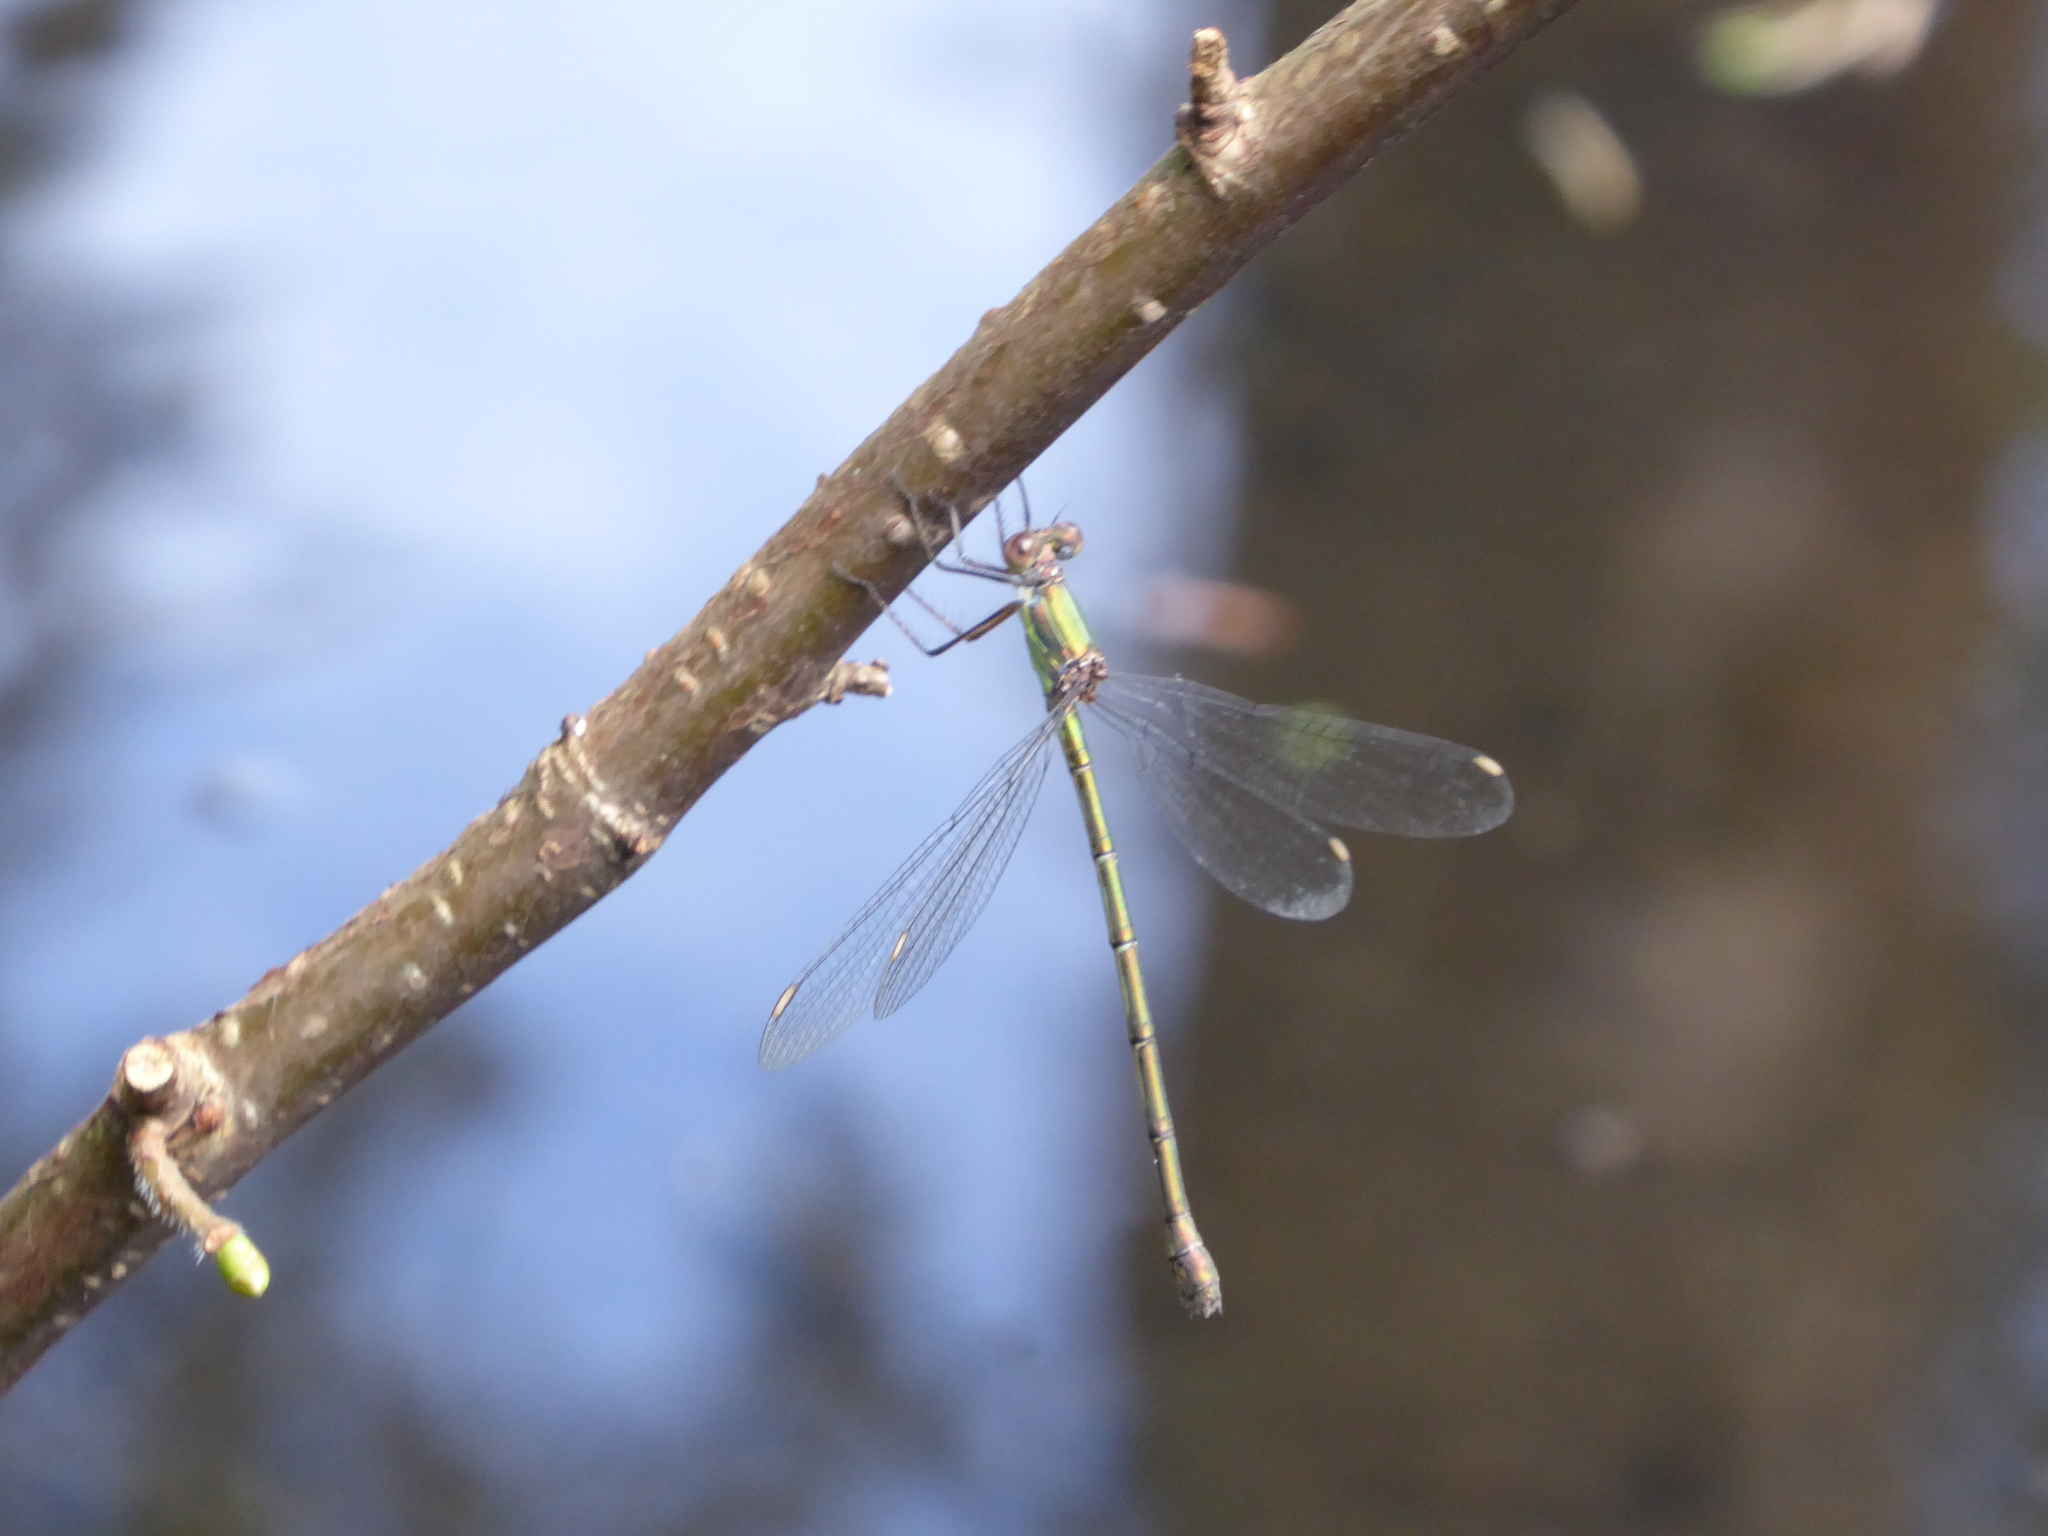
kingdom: Animalia
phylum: Arthropoda
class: Insecta
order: Odonata
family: Lestidae
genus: Chalcolestes
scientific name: Chalcolestes viridis
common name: Green emerald damselfly
